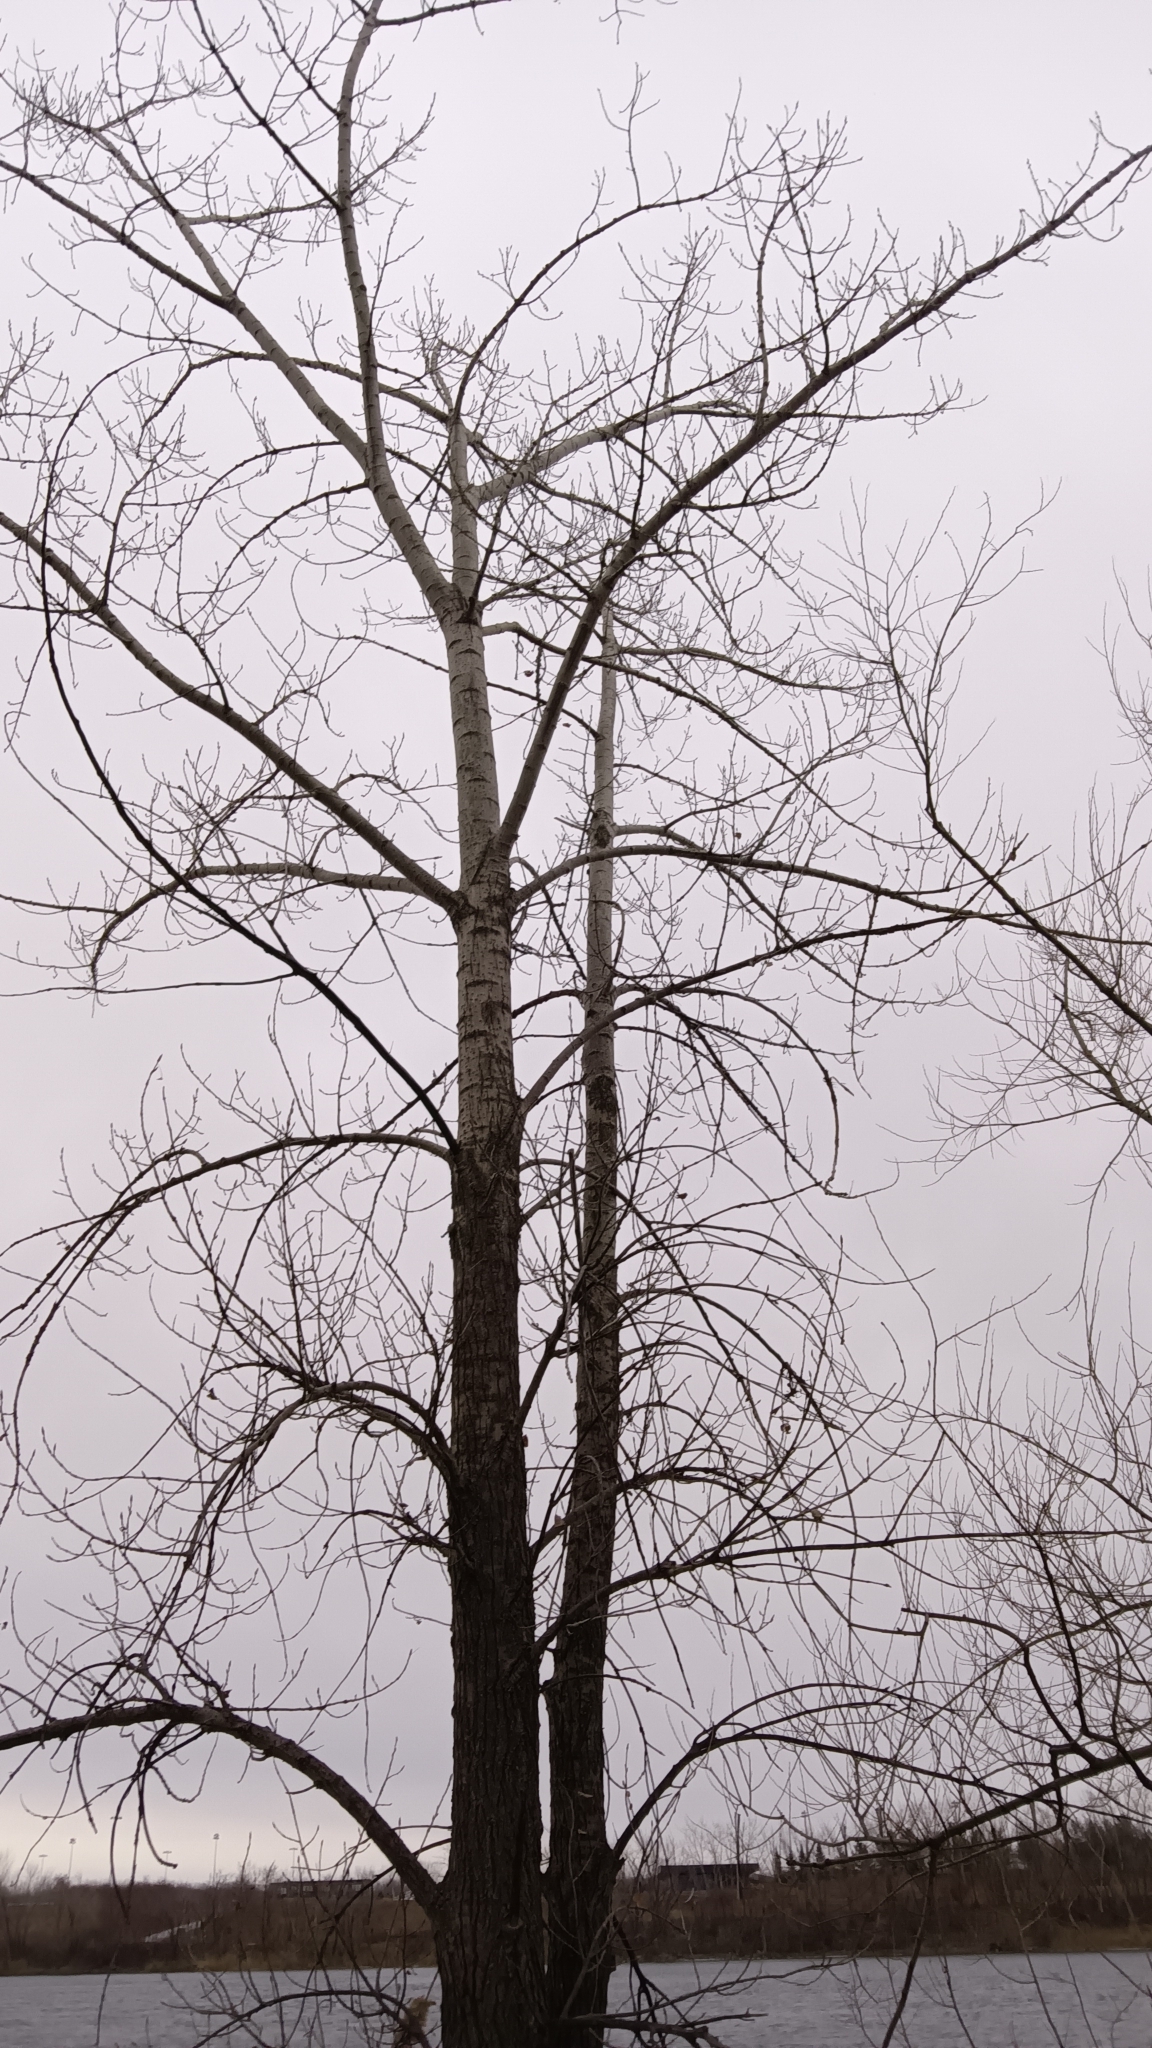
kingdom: Plantae
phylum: Tracheophyta
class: Magnoliopsida
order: Malpighiales
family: Salicaceae
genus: Populus
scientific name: Populus deltoides
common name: Eastern cottonwood
